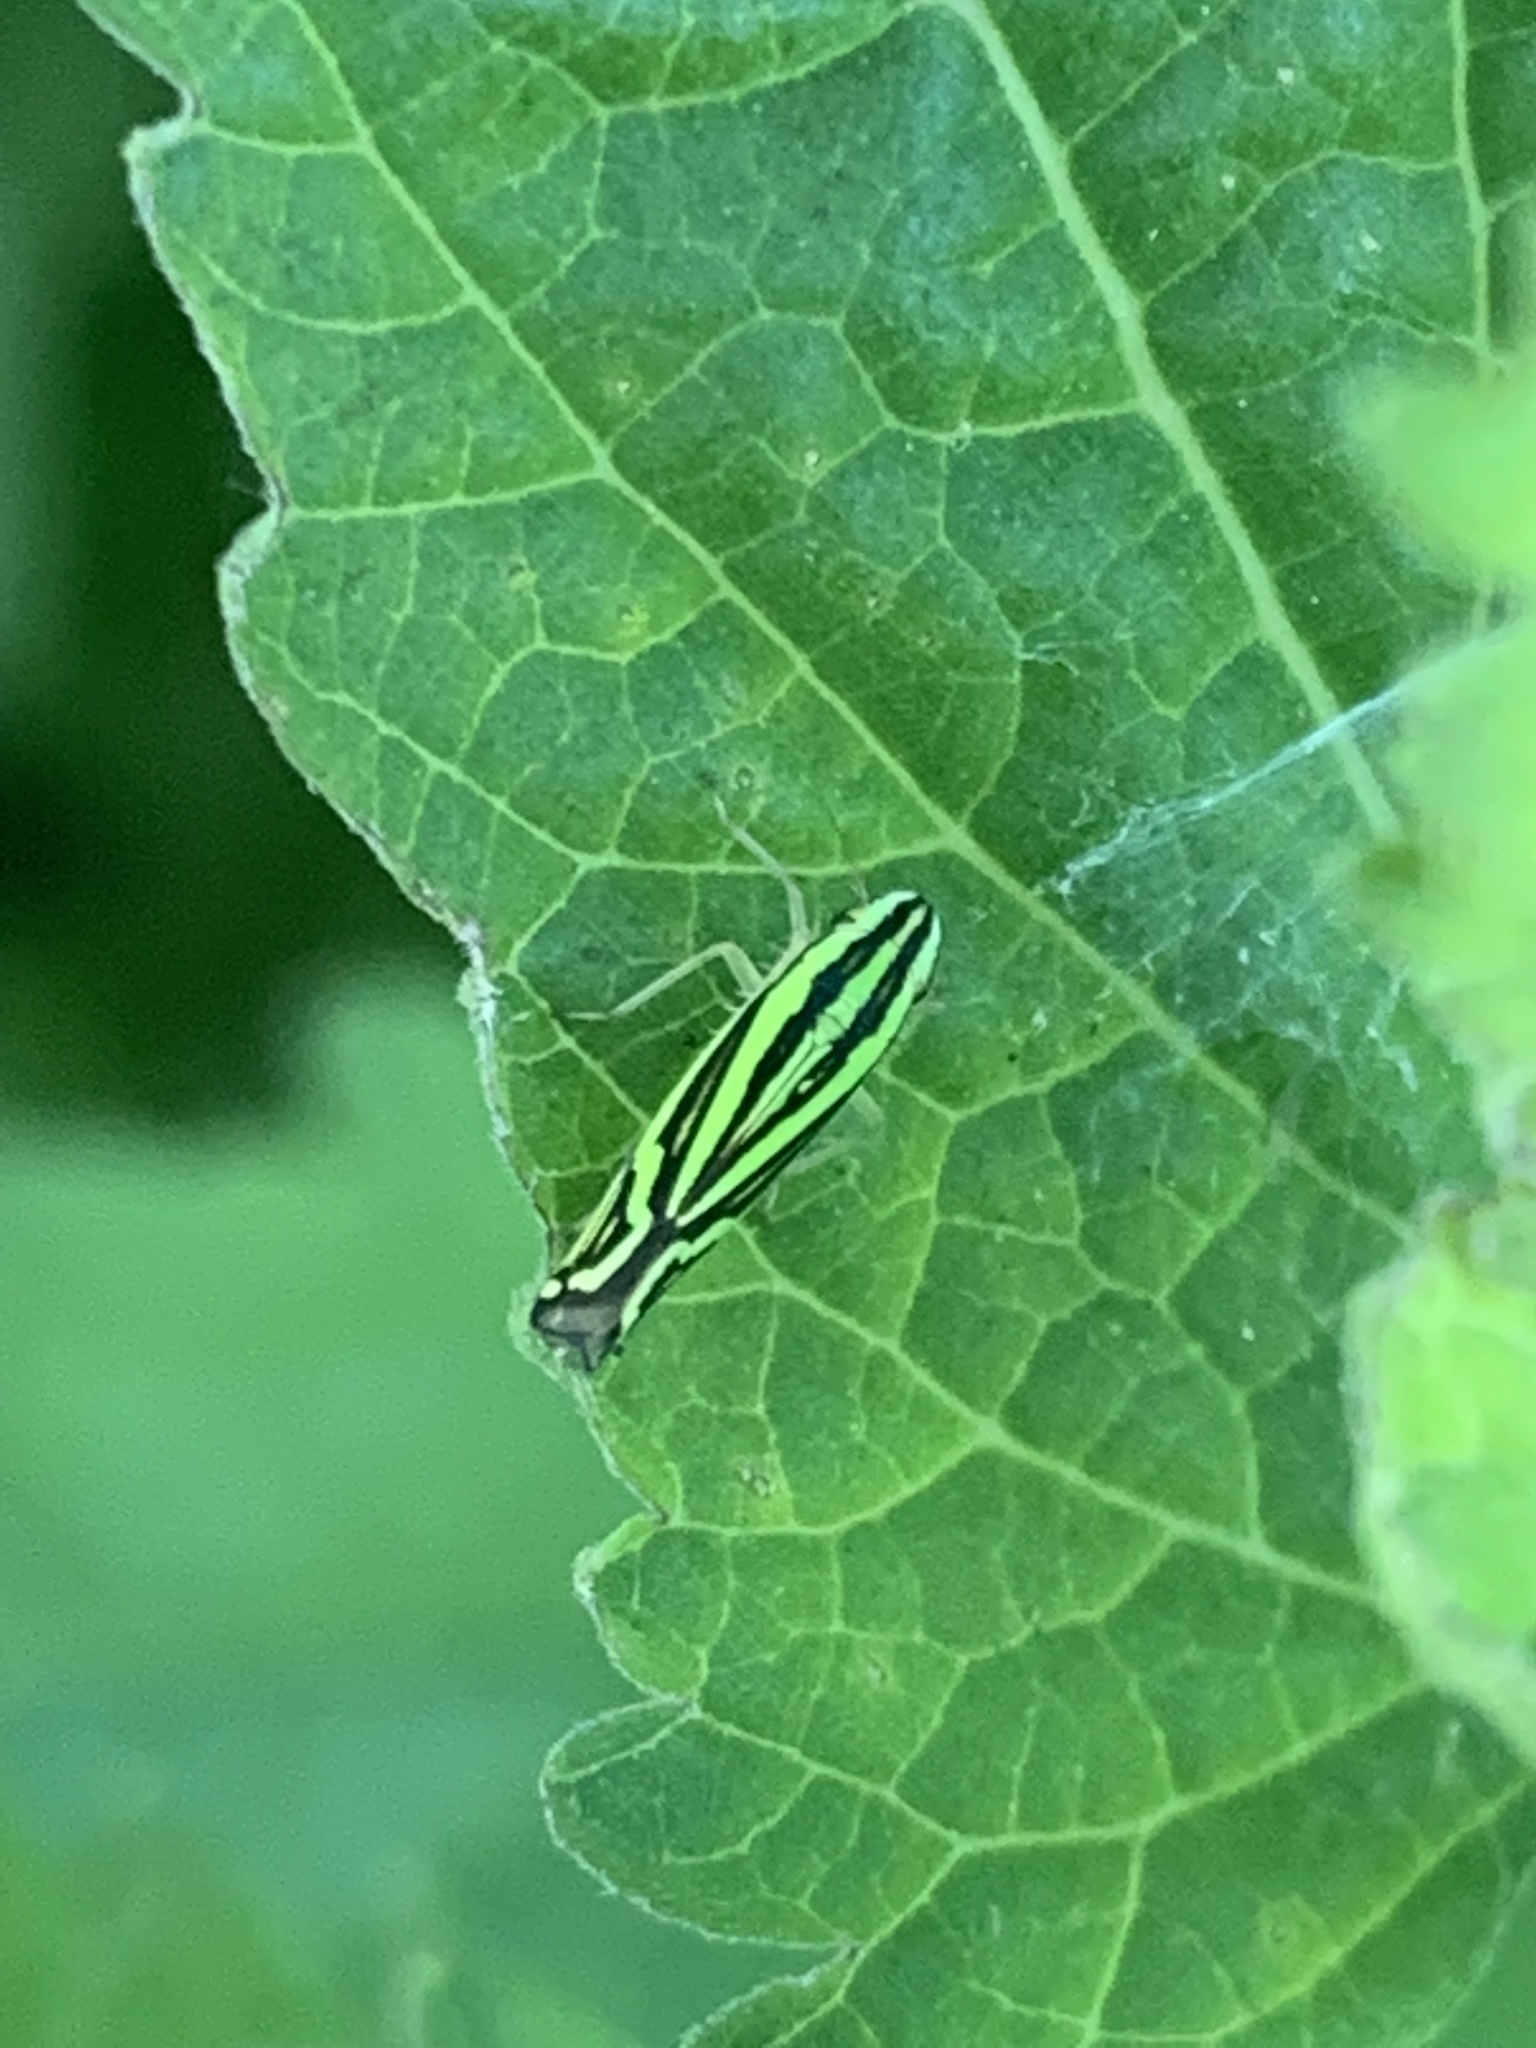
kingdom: Animalia
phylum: Arthropoda
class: Insecta
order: Hemiptera
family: Cicadellidae
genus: Sibovia
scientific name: Sibovia sagata
